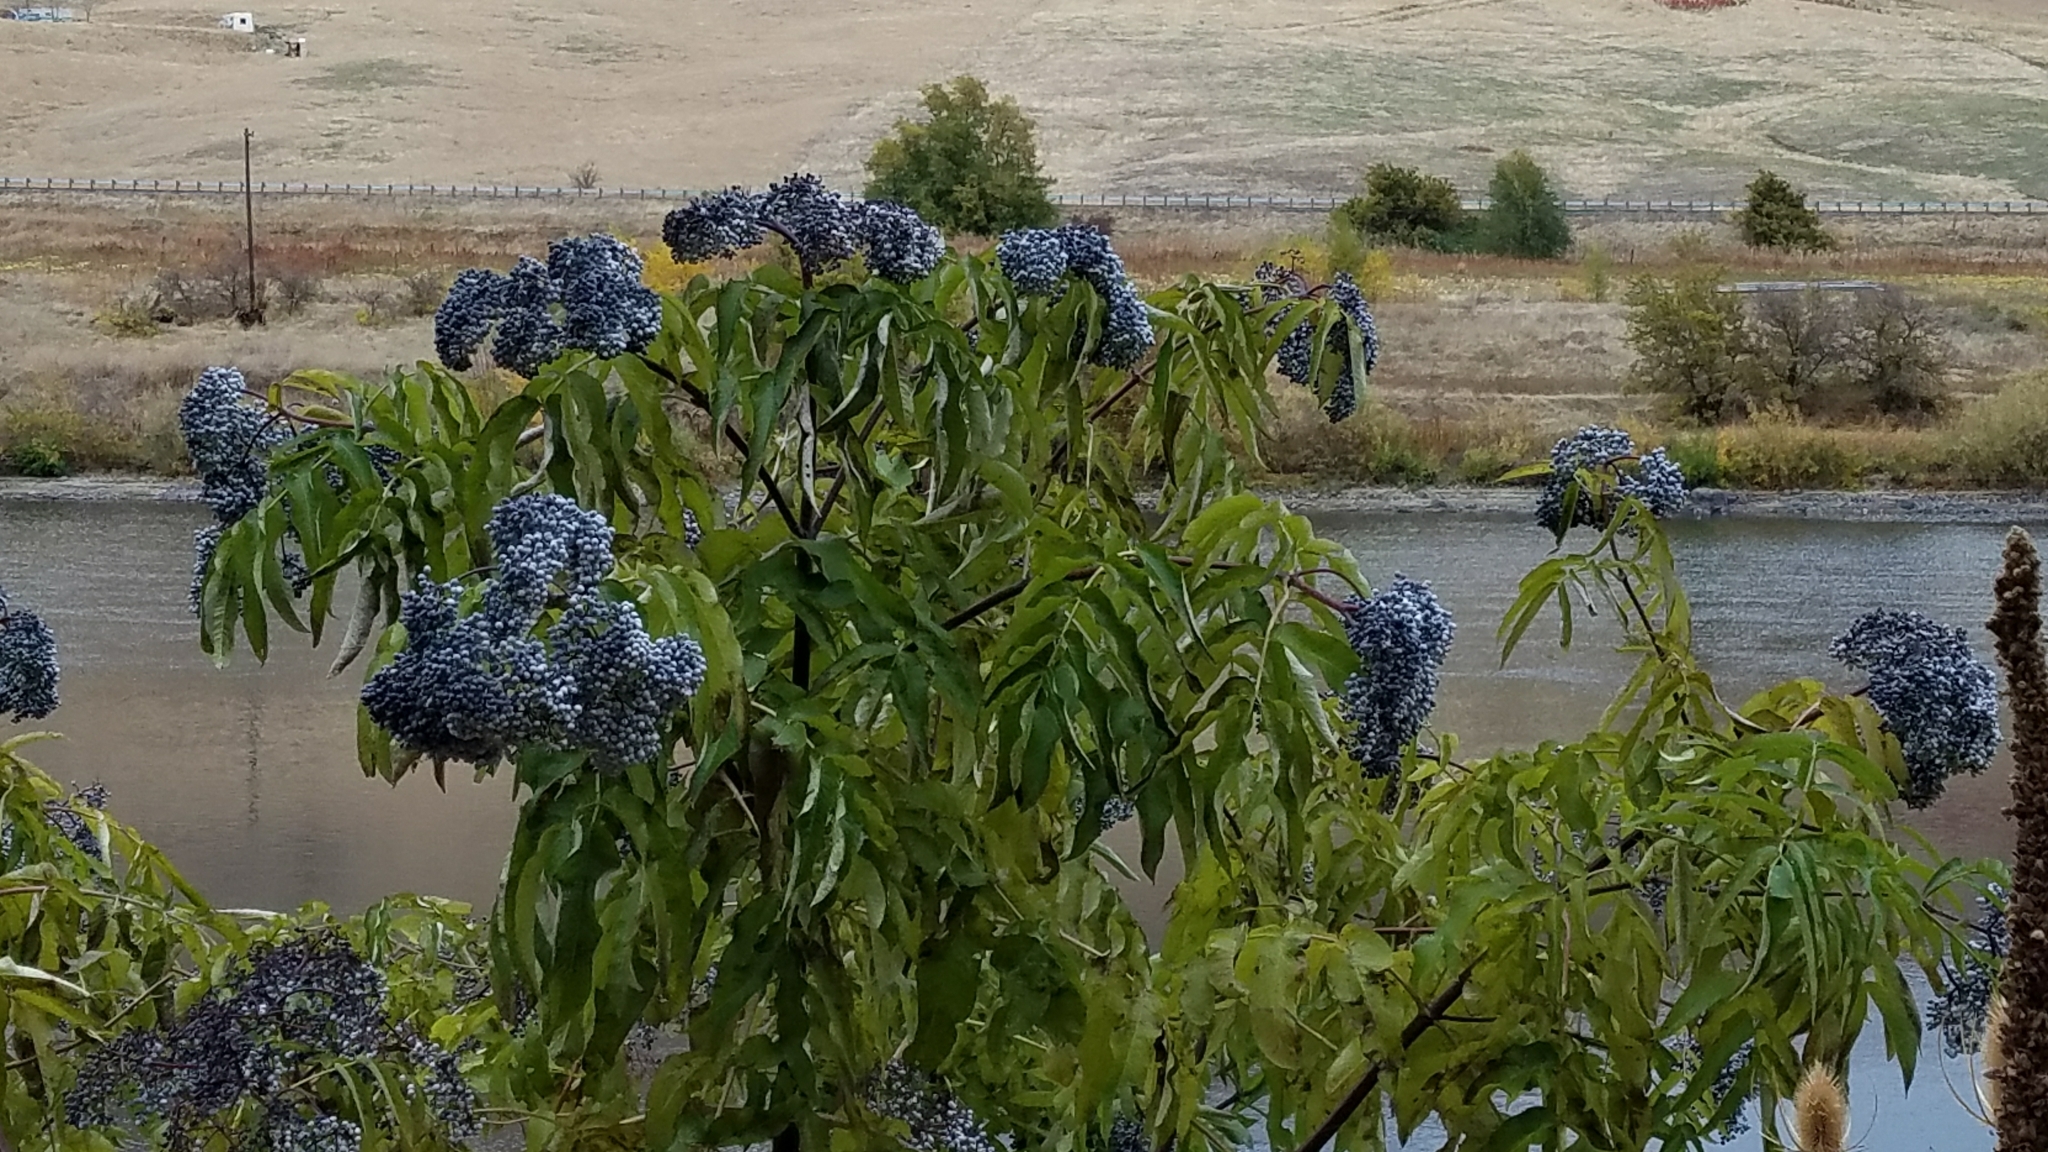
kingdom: Plantae
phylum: Tracheophyta
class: Magnoliopsida
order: Dipsacales
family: Viburnaceae
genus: Sambucus
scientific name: Sambucus cerulea
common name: Blue elder
